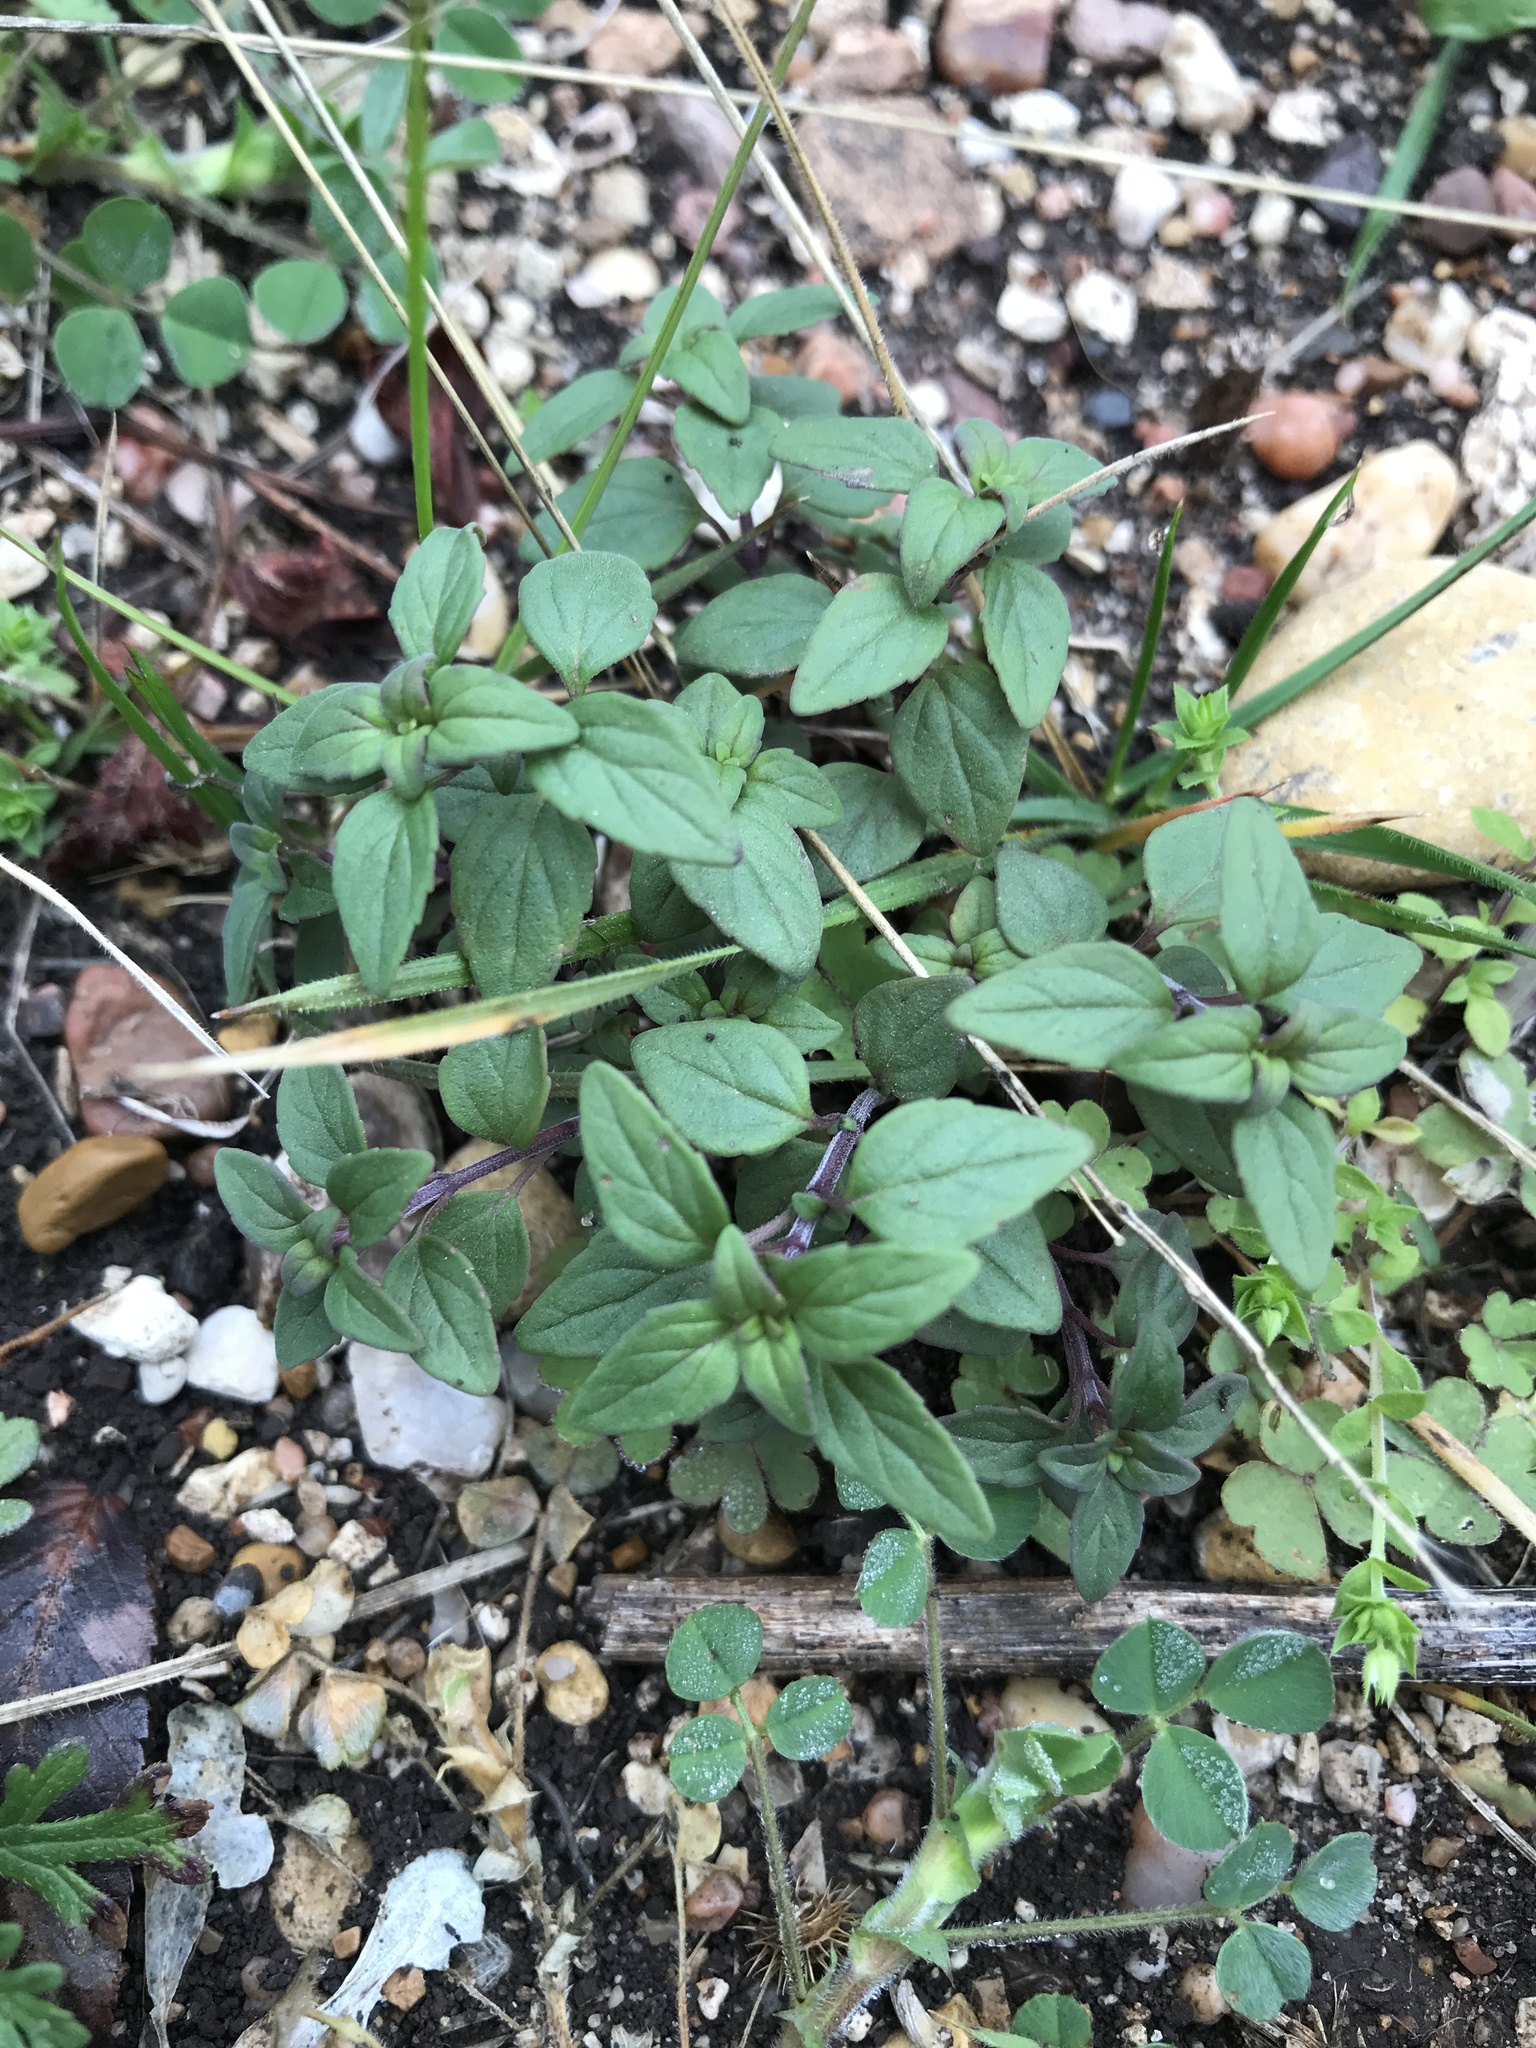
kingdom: Plantae
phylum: Tracheophyta
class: Magnoliopsida
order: Lamiales
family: Lamiaceae
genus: Hedeoma
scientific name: Hedeoma acinoides
